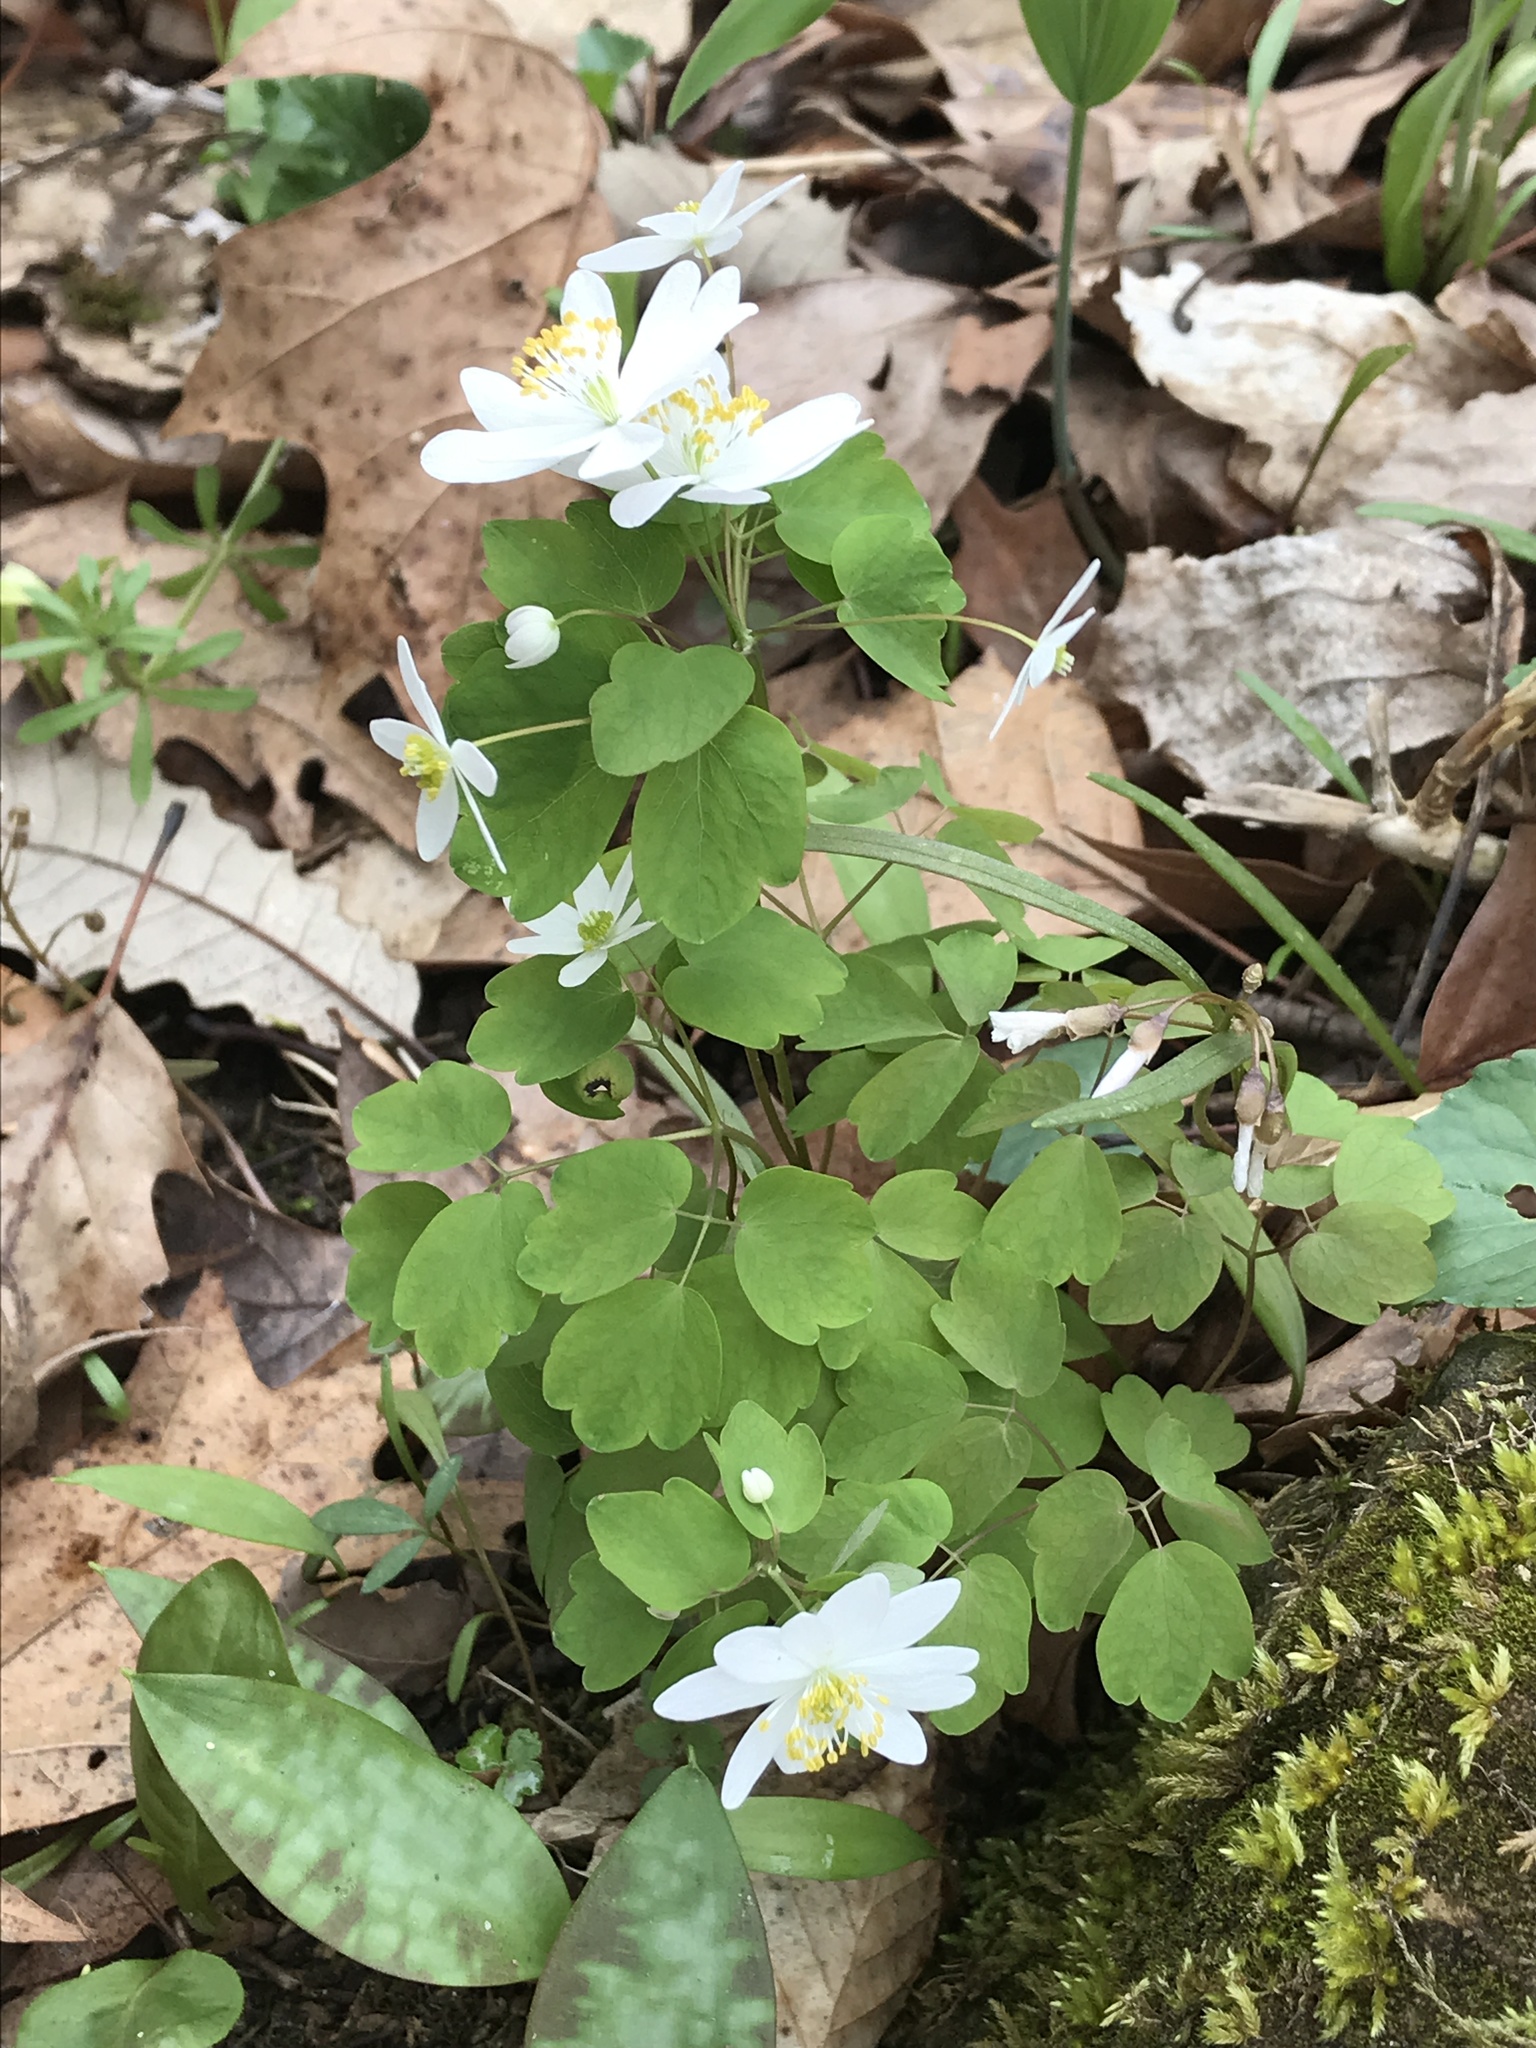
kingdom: Plantae
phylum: Tracheophyta
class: Magnoliopsida
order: Ranunculales
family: Ranunculaceae
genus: Thalictrum
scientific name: Thalictrum thalictroides
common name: Rue-anemone
